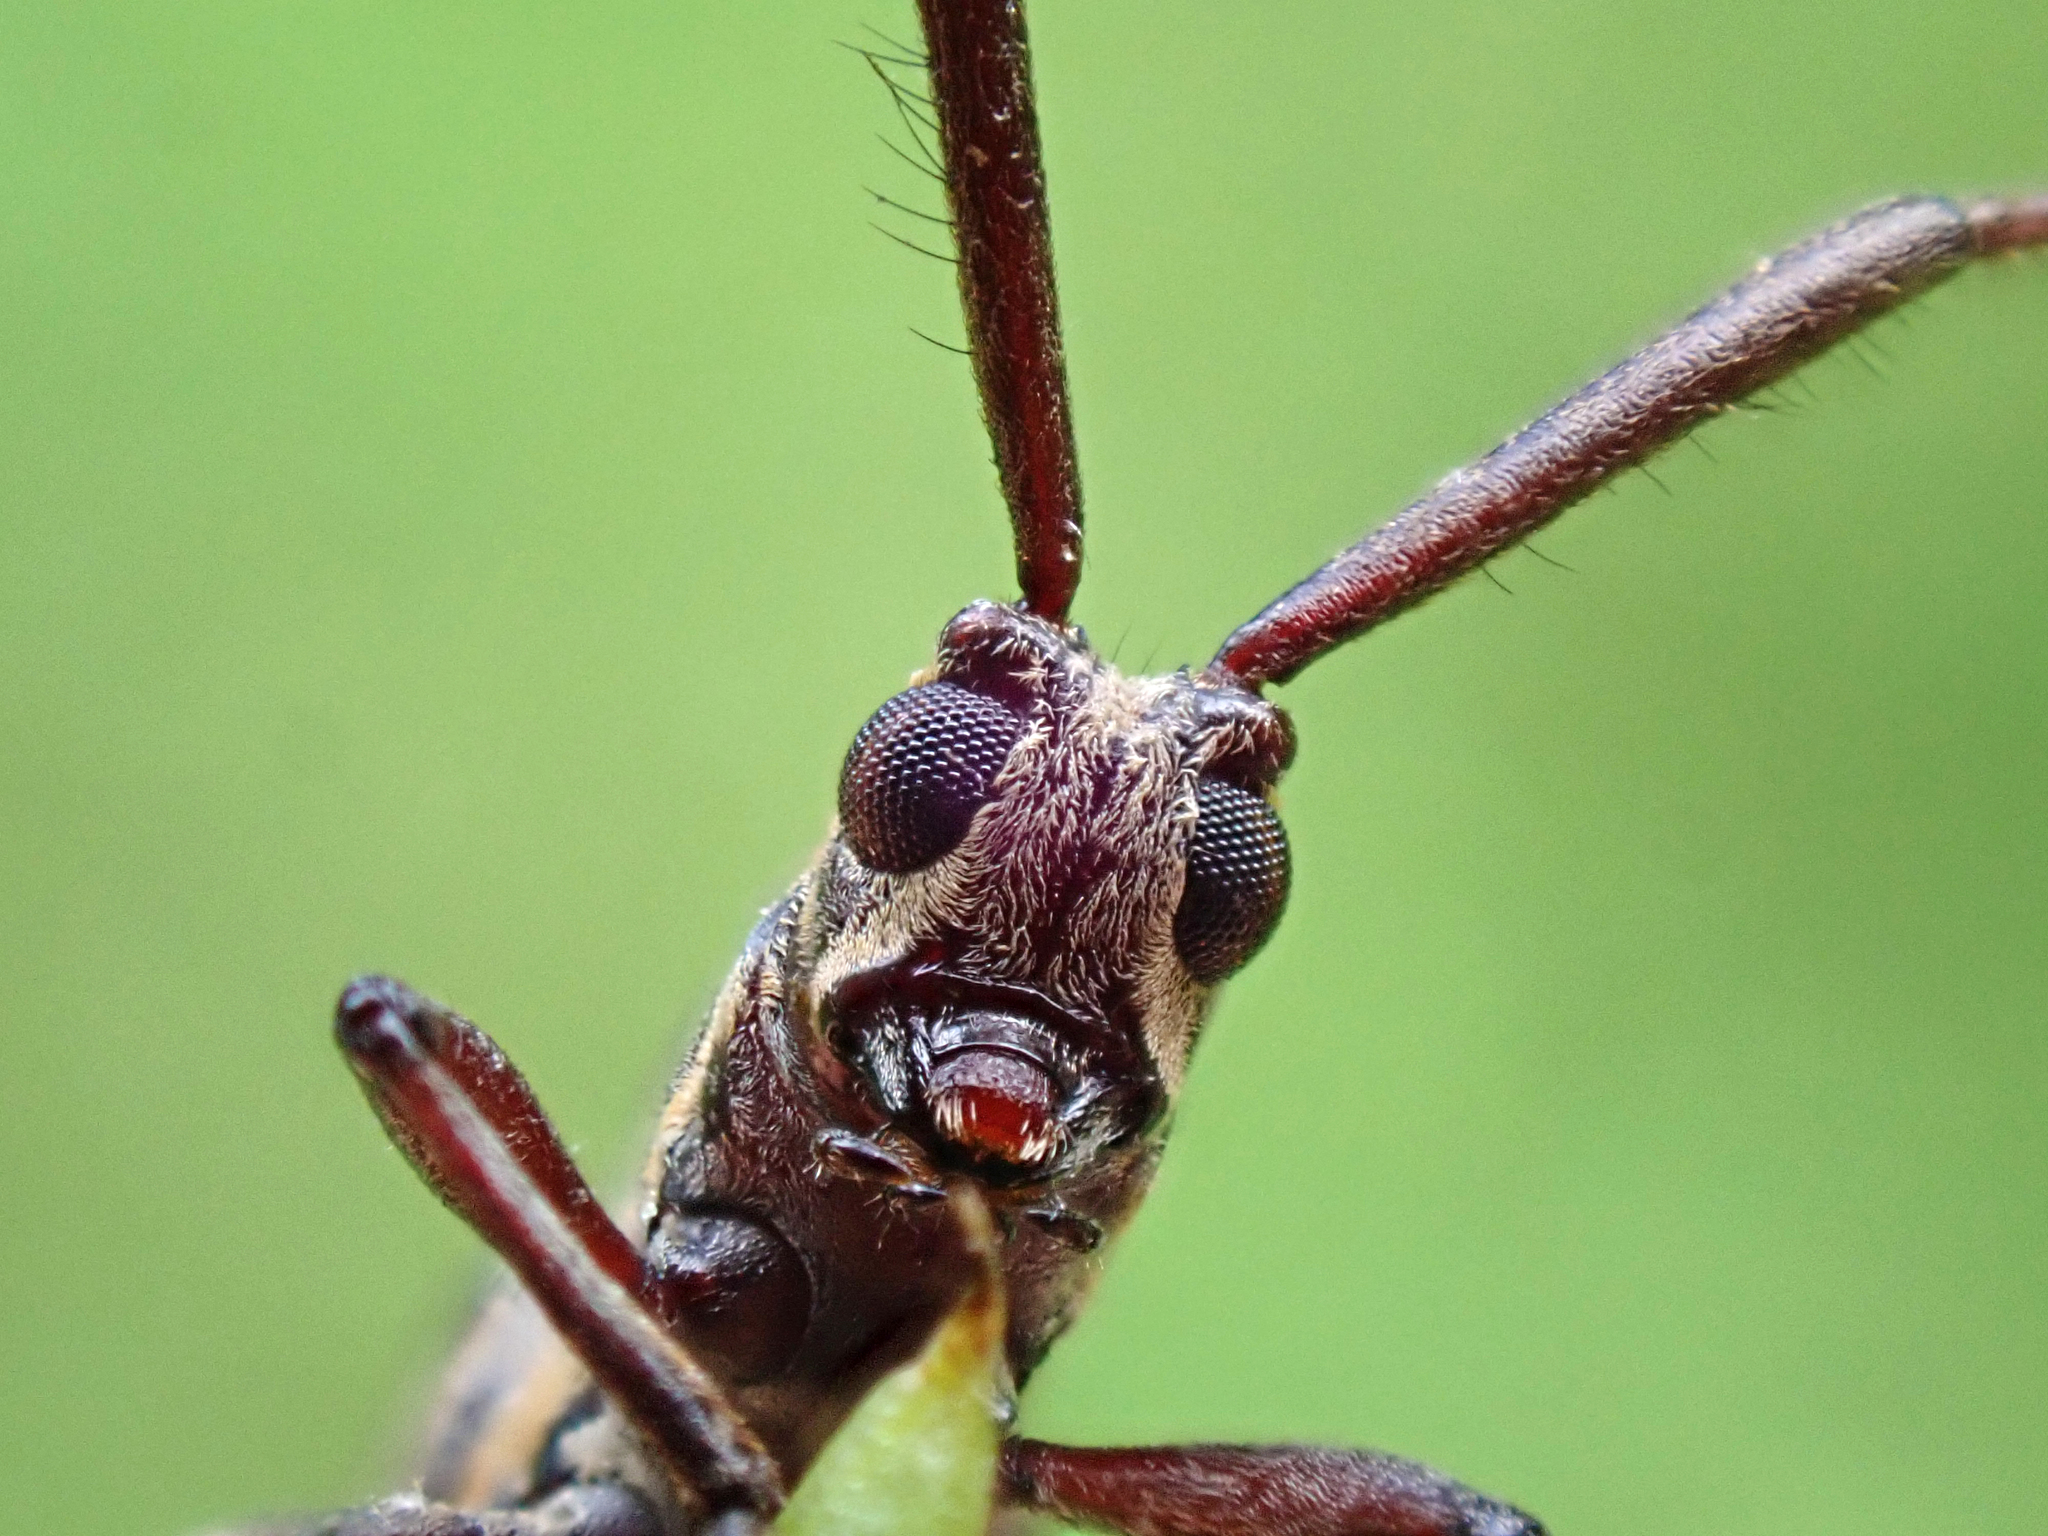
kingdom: Animalia
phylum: Arthropoda
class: Insecta
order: Coleoptera
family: Cerambycidae
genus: Hippopsis
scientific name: Hippopsis
